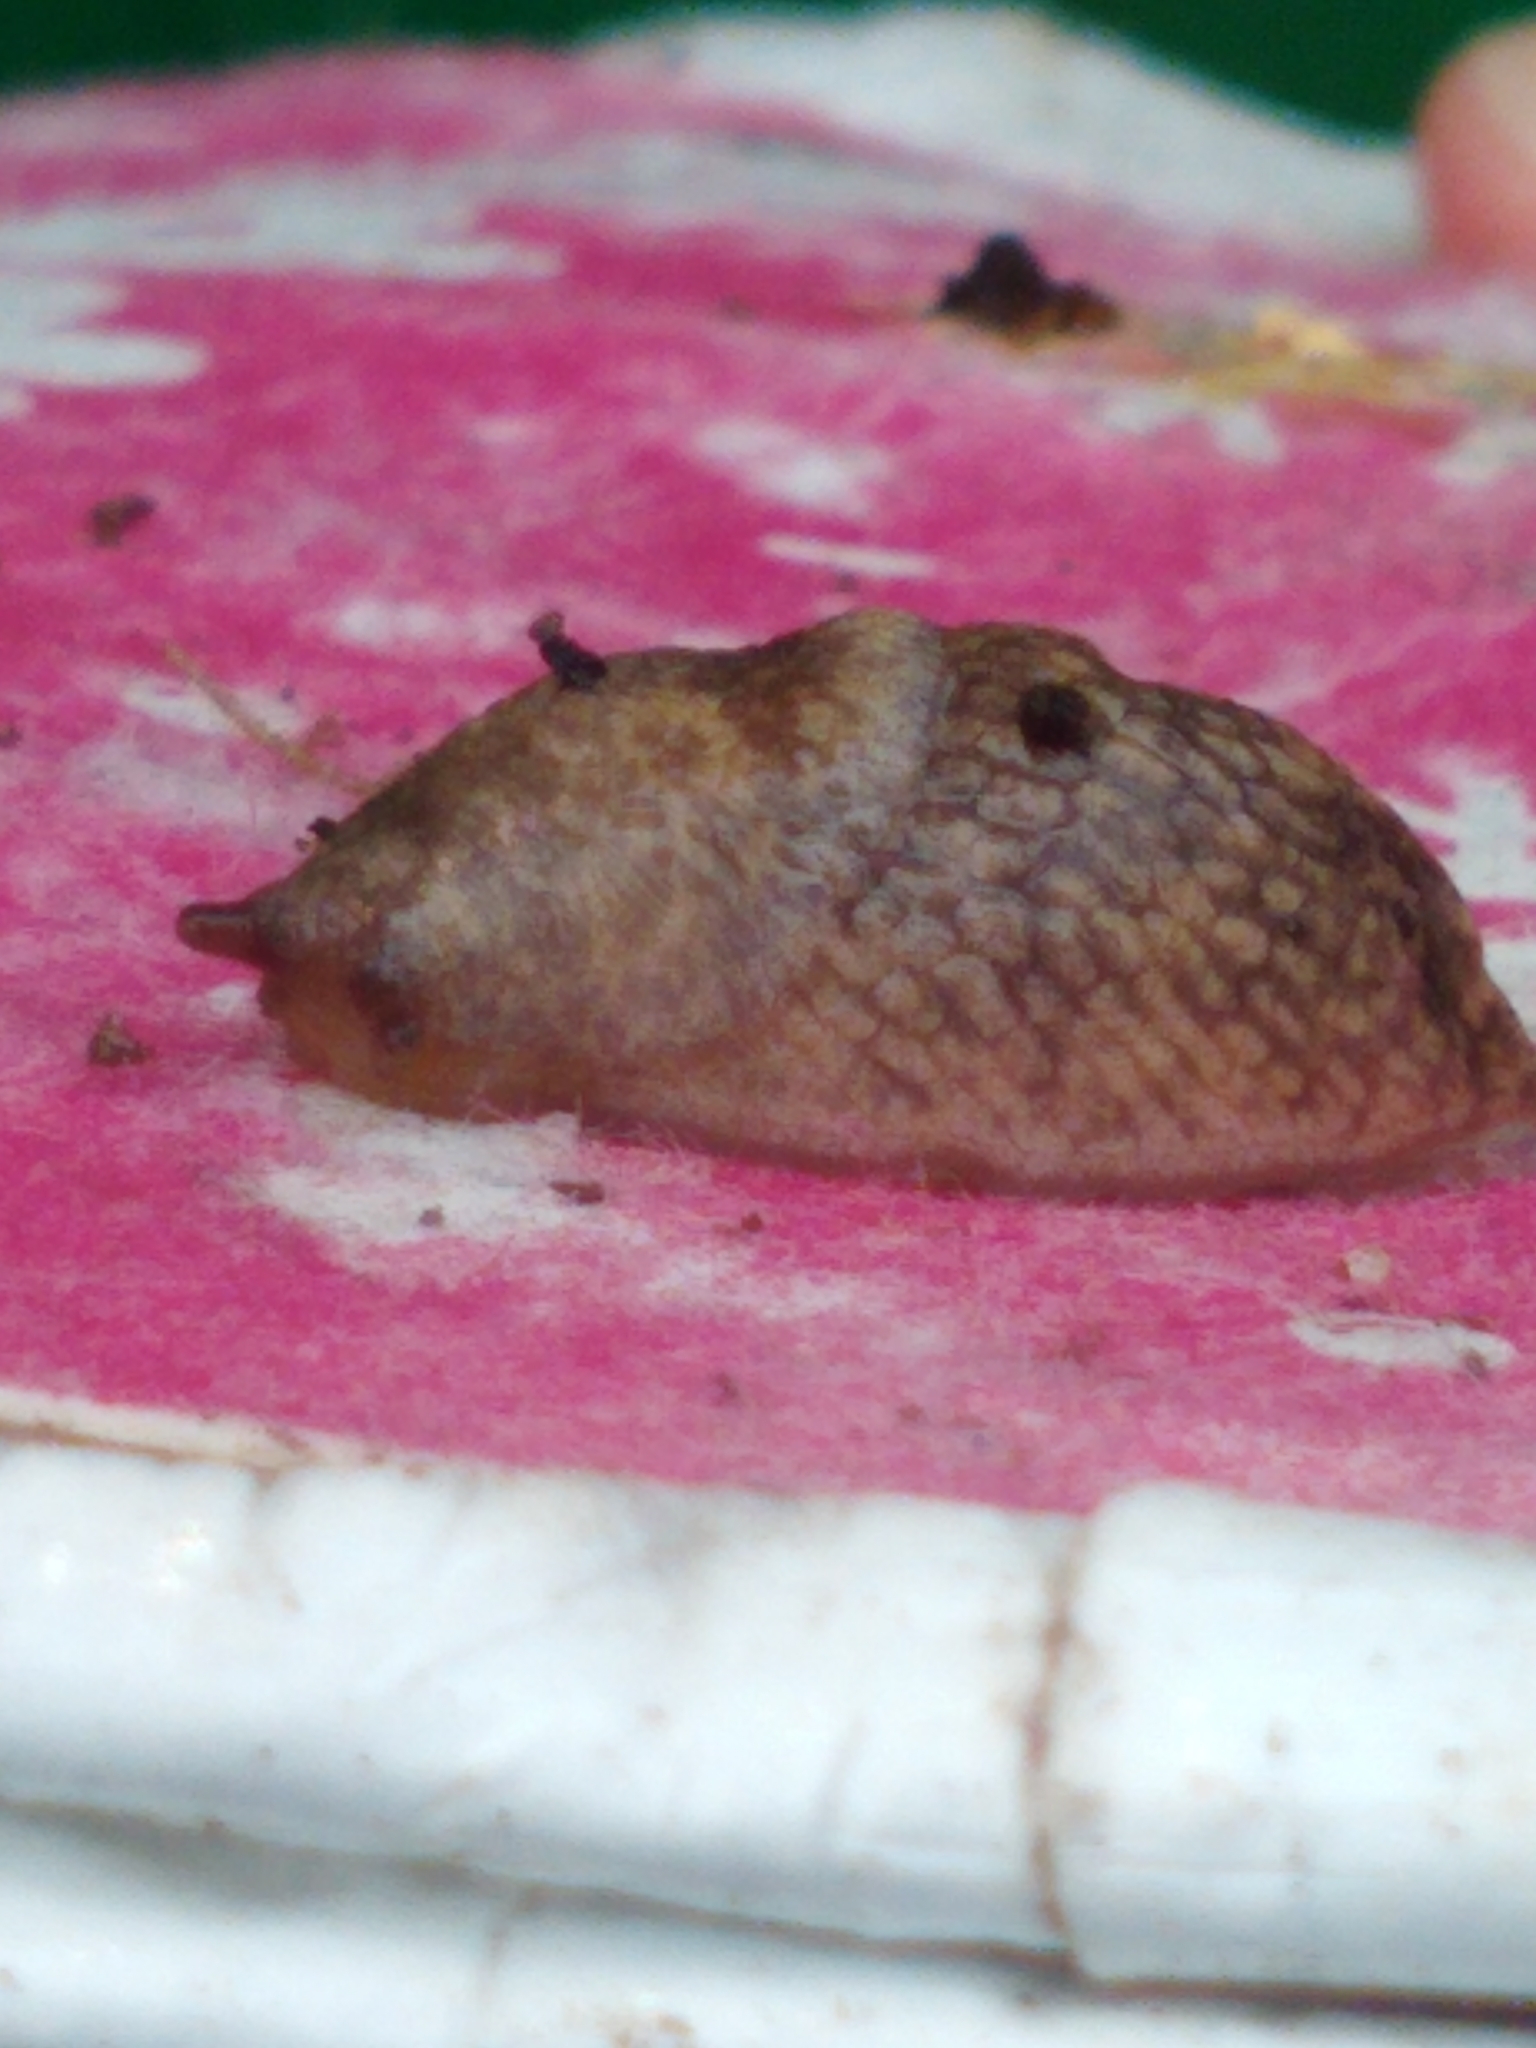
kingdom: Animalia
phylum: Mollusca
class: Gastropoda
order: Stylommatophora
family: Agriolimacidae
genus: Deroceras
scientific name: Deroceras reticulatum
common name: Gray field slug
